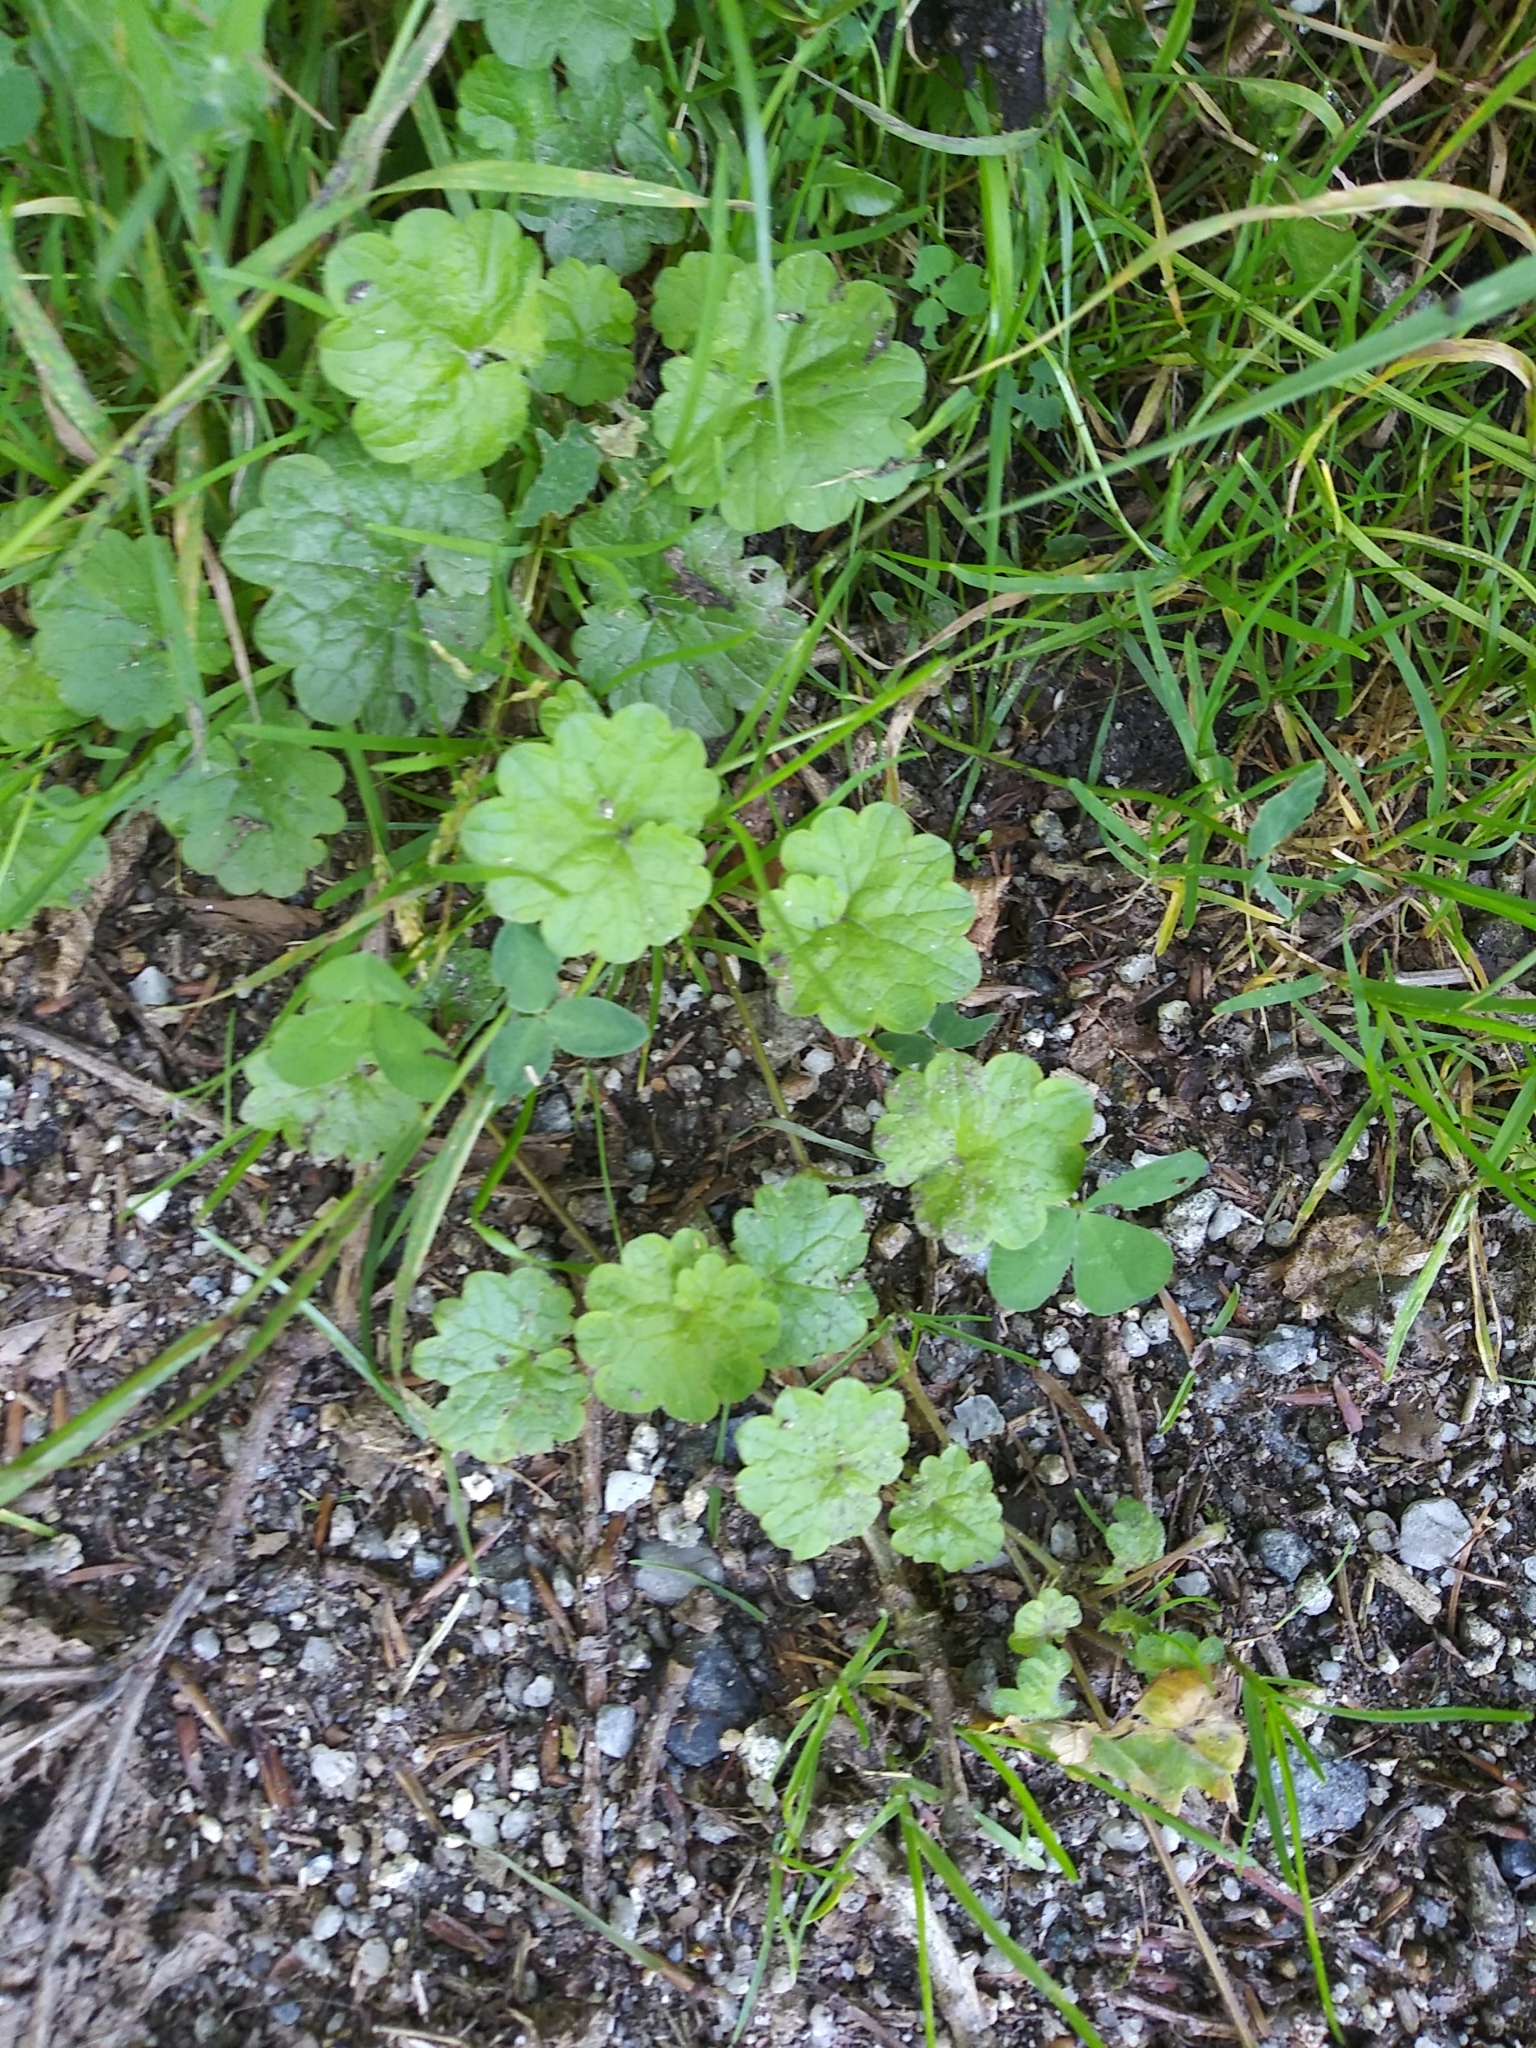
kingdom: Plantae
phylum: Tracheophyta
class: Magnoliopsida
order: Lamiales
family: Lamiaceae
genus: Glechoma
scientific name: Glechoma hederacea
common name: Ground ivy
